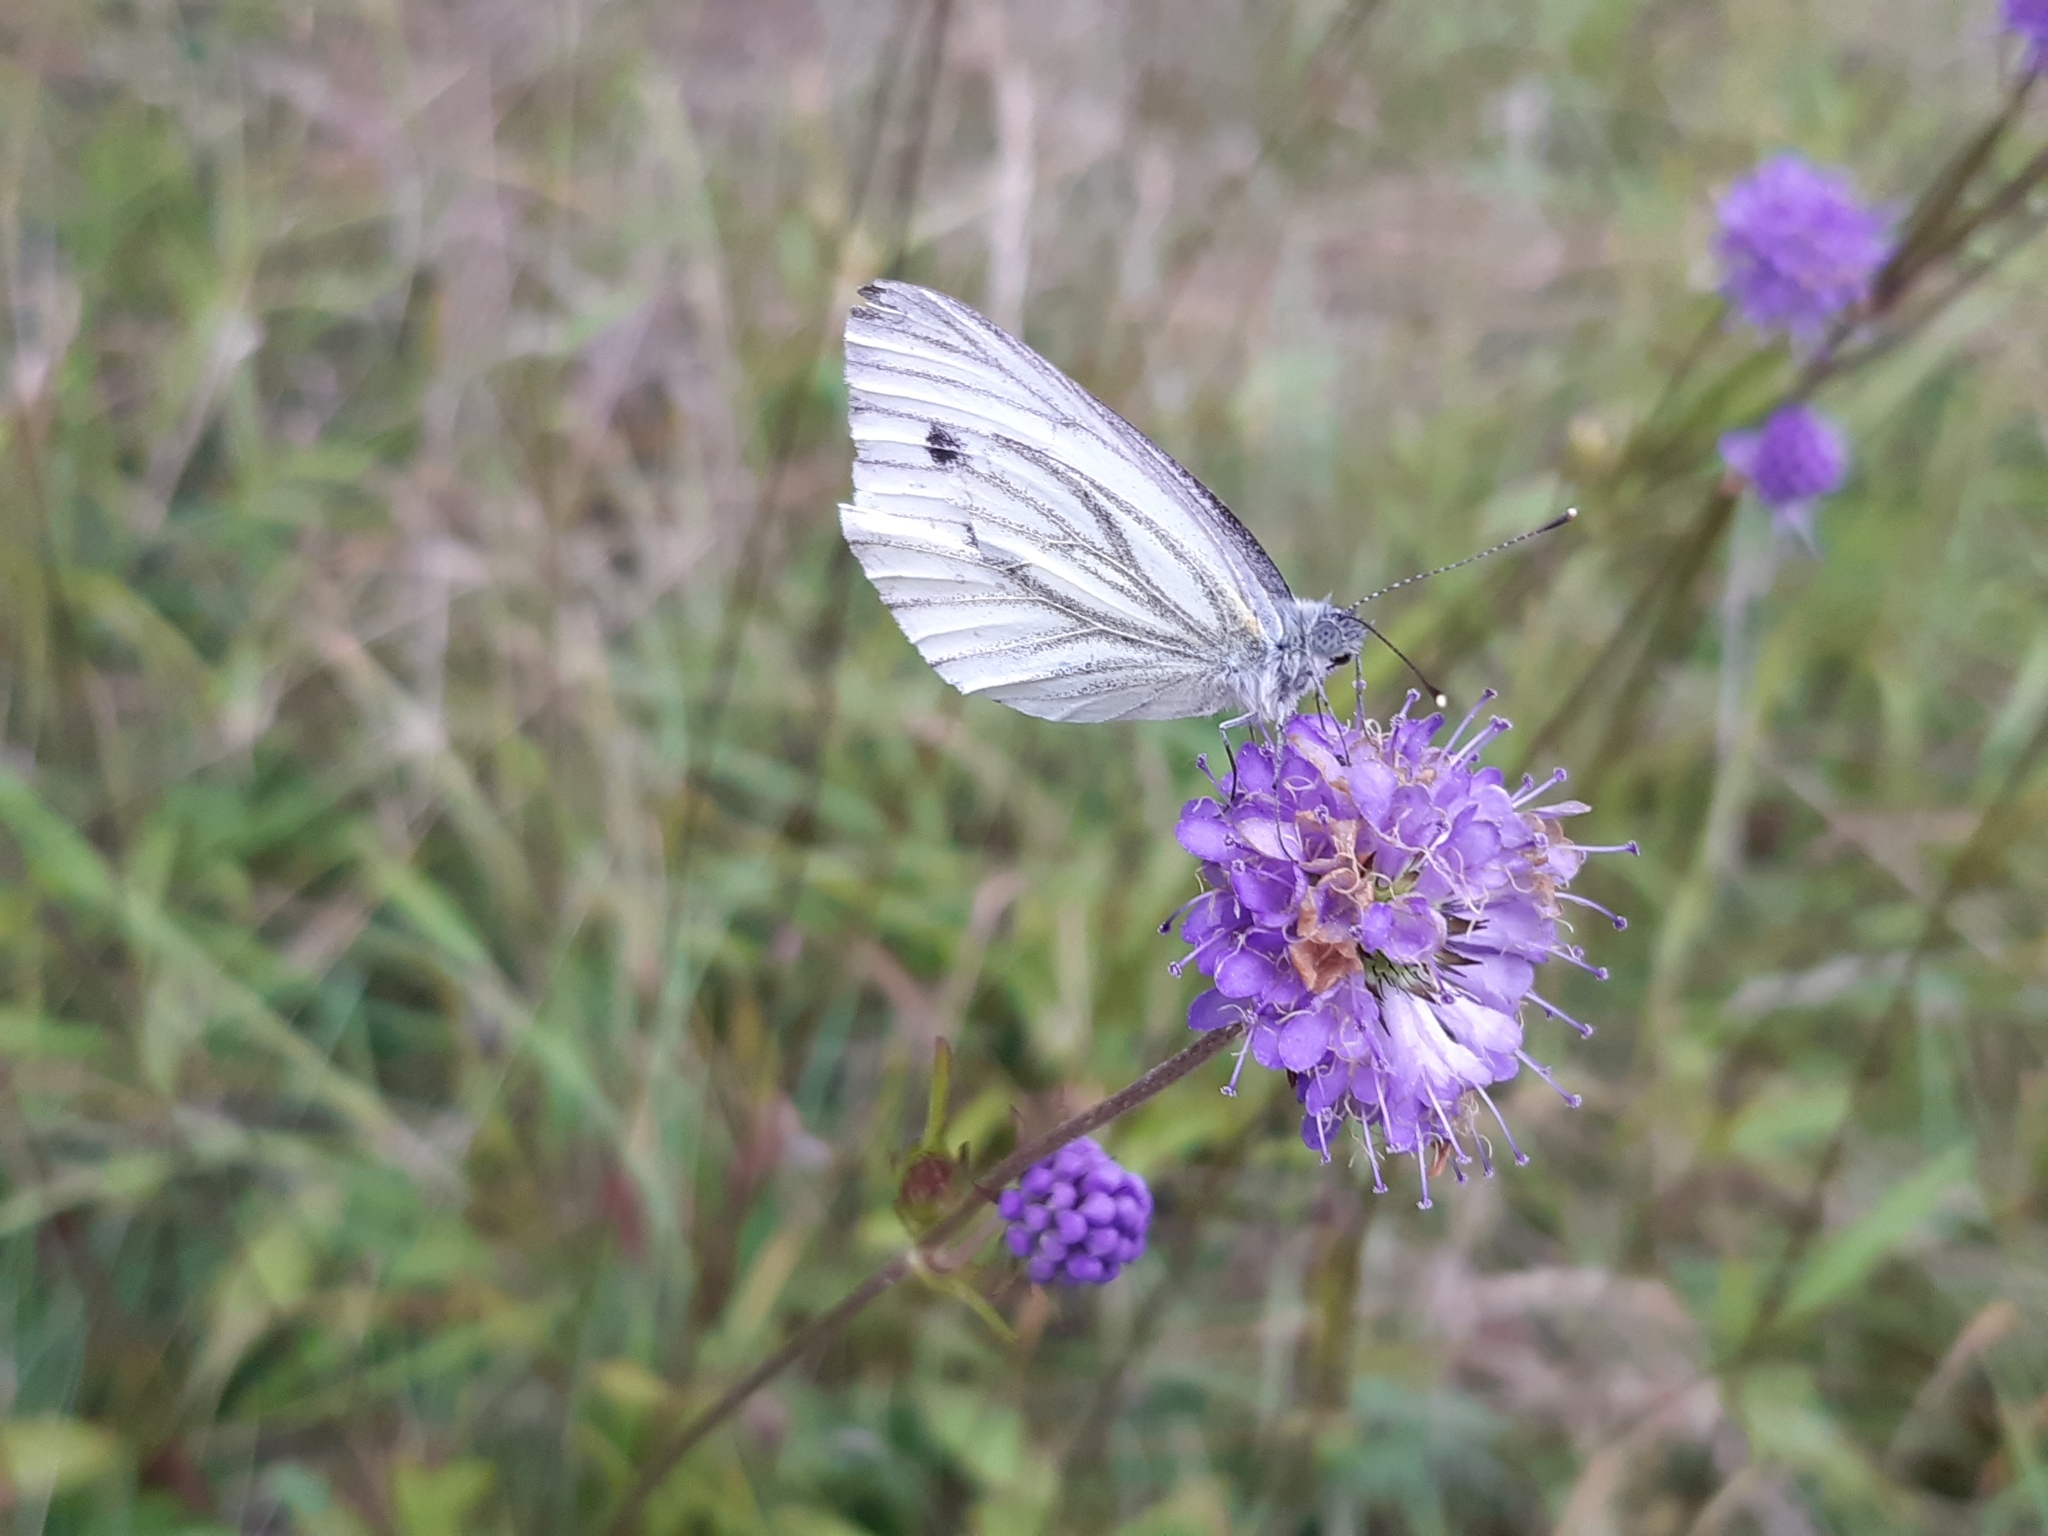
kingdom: Plantae
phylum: Tracheophyta
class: Magnoliopsida
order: Dipsacales
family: Caprifoliaceae
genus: Succisa
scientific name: Succisa pratensis
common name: Devil's-bit
